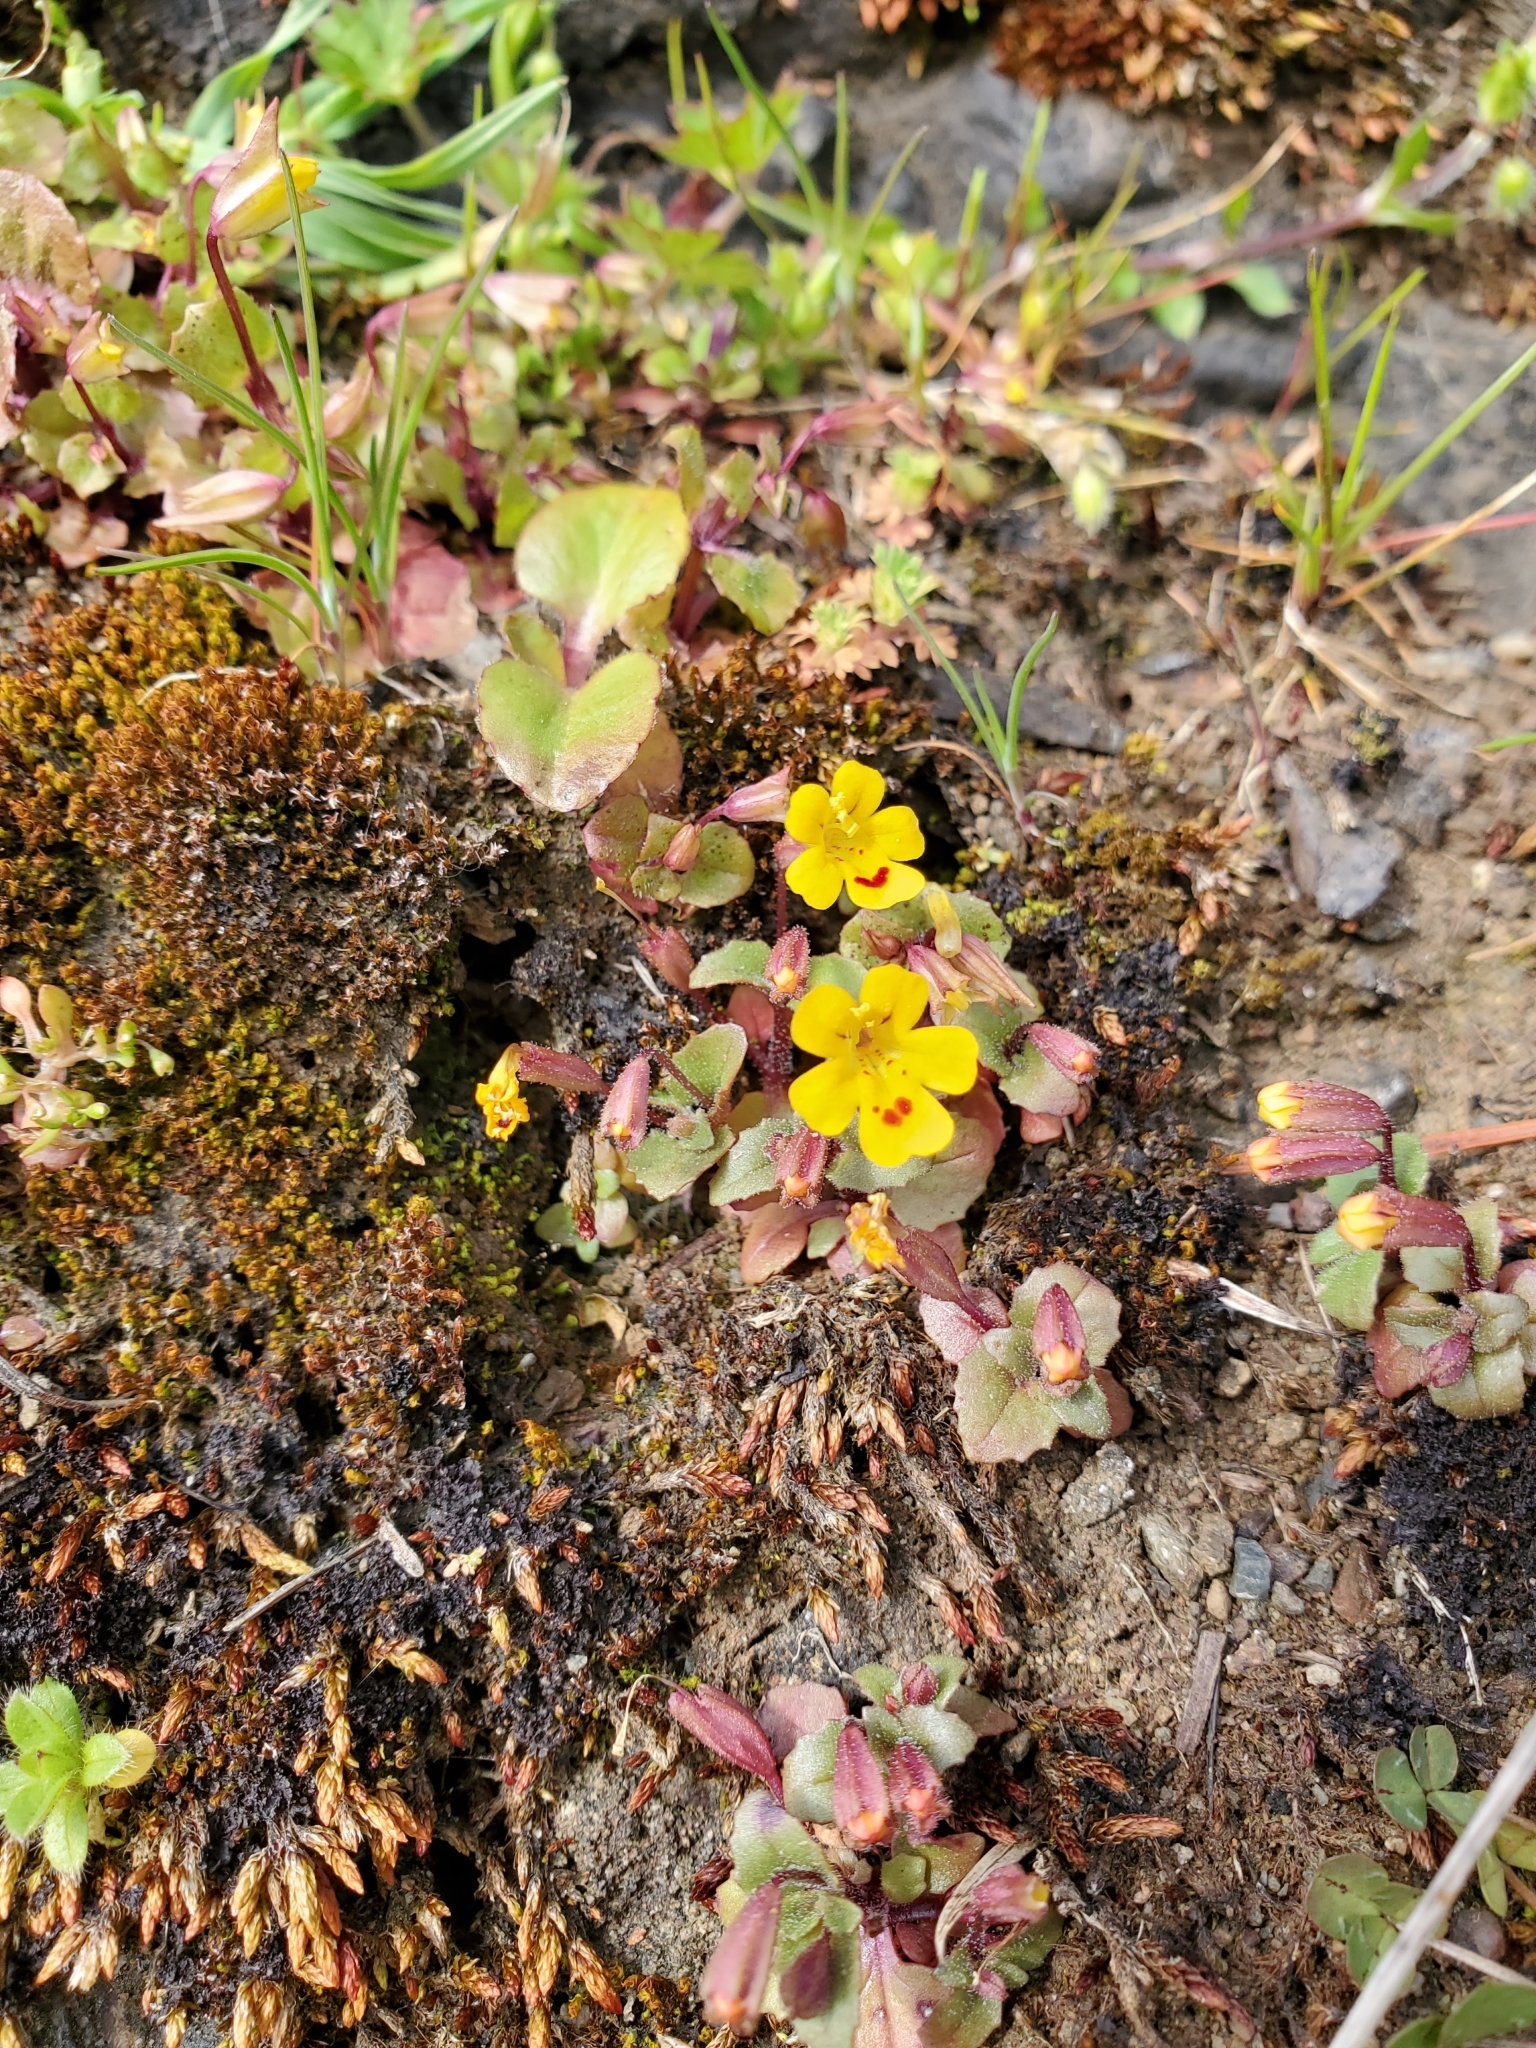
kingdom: Plantae
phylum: Tracheophyta
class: Magnoliopsida
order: Lamiales
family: Phrymaceae
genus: Erythranthe
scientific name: Erythranthe alsinoides
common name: Chickweed monkeyflower
